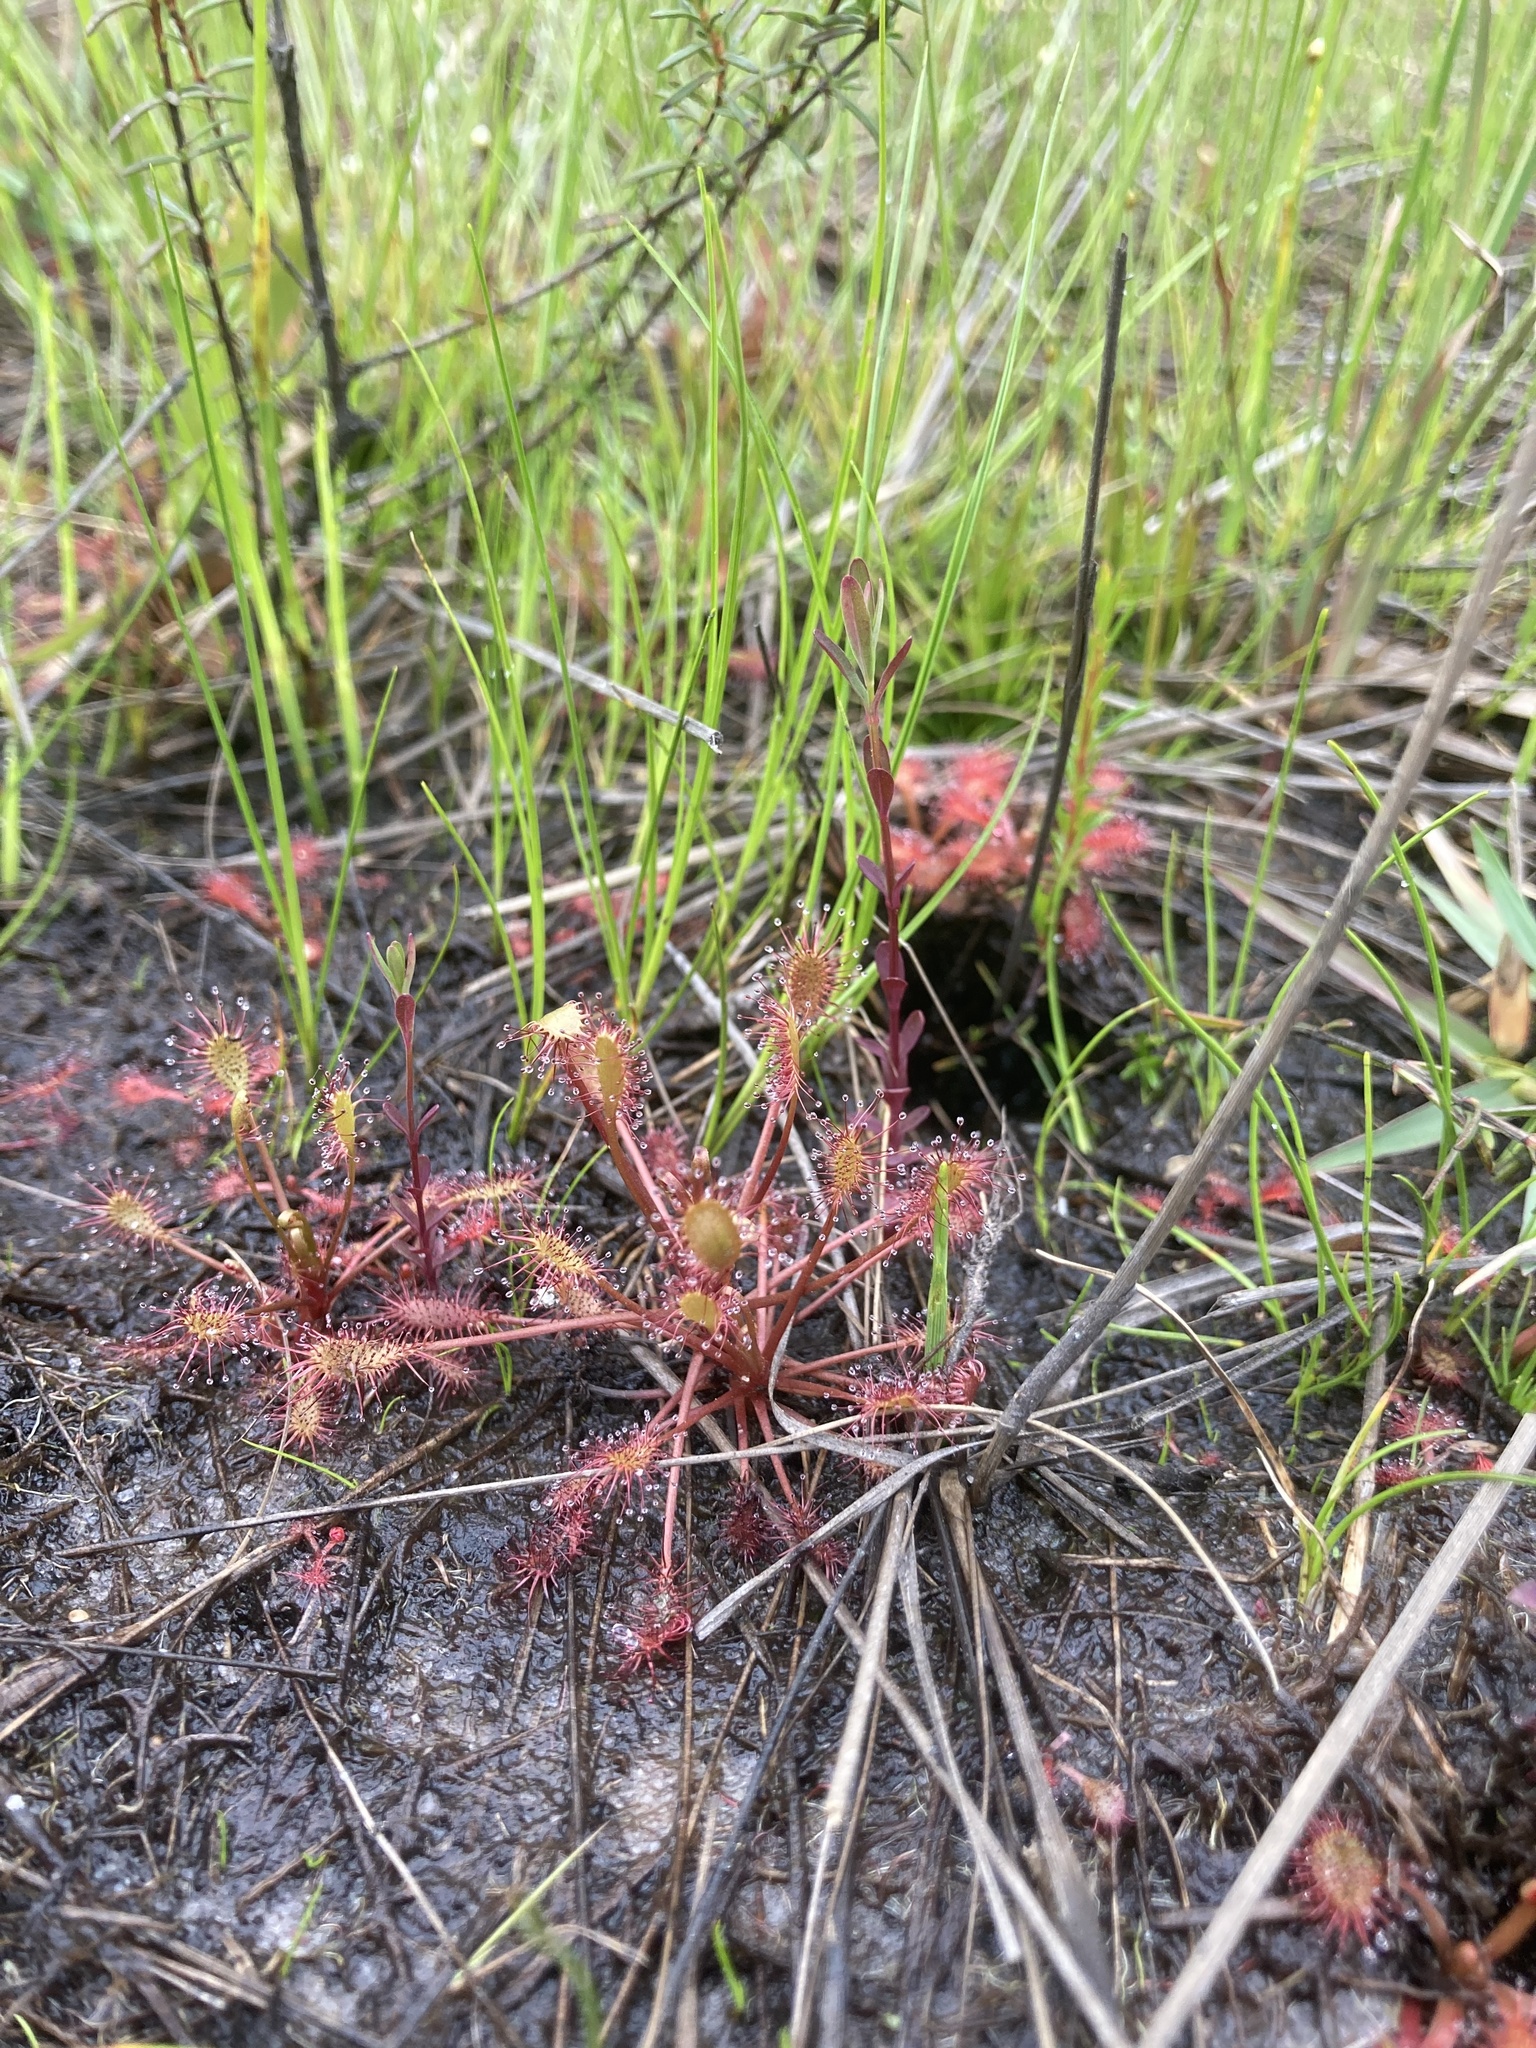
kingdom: Plantae
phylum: Tracheophyta
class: Magnoliopsida
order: Caryophyllales
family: Droseraceae
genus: Drosera
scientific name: Drosera intermedia
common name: Oblong-leaved sundew
